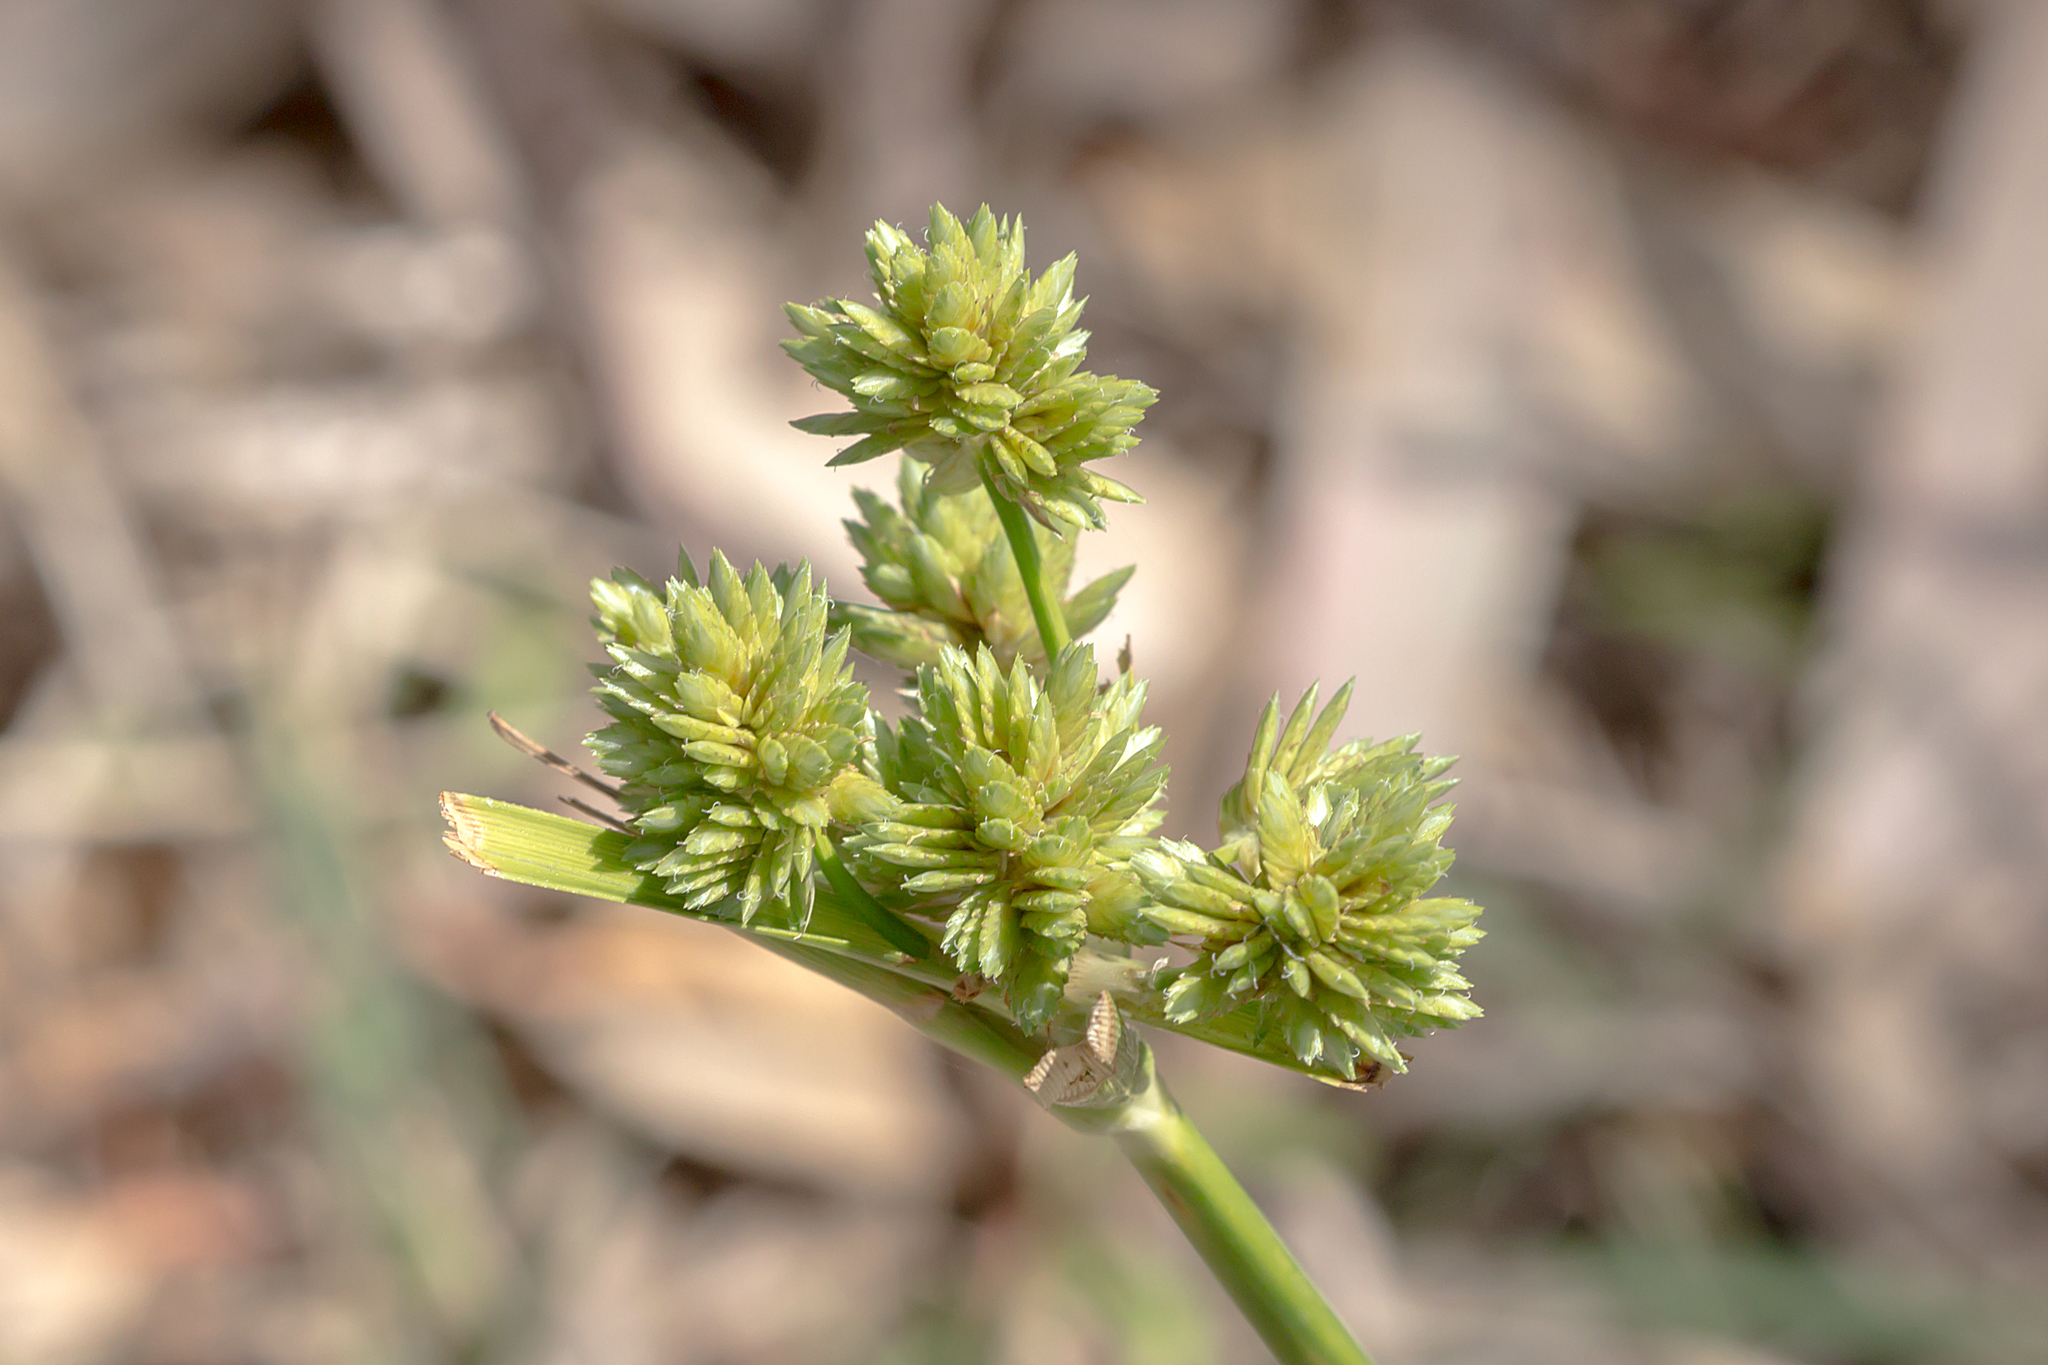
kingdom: Plantae
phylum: Tracheophyta
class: Liliopsida
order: Poales
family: Cyperaceae
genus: Cyperus
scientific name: Cyperus eragrostis
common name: Tall flatsedge
